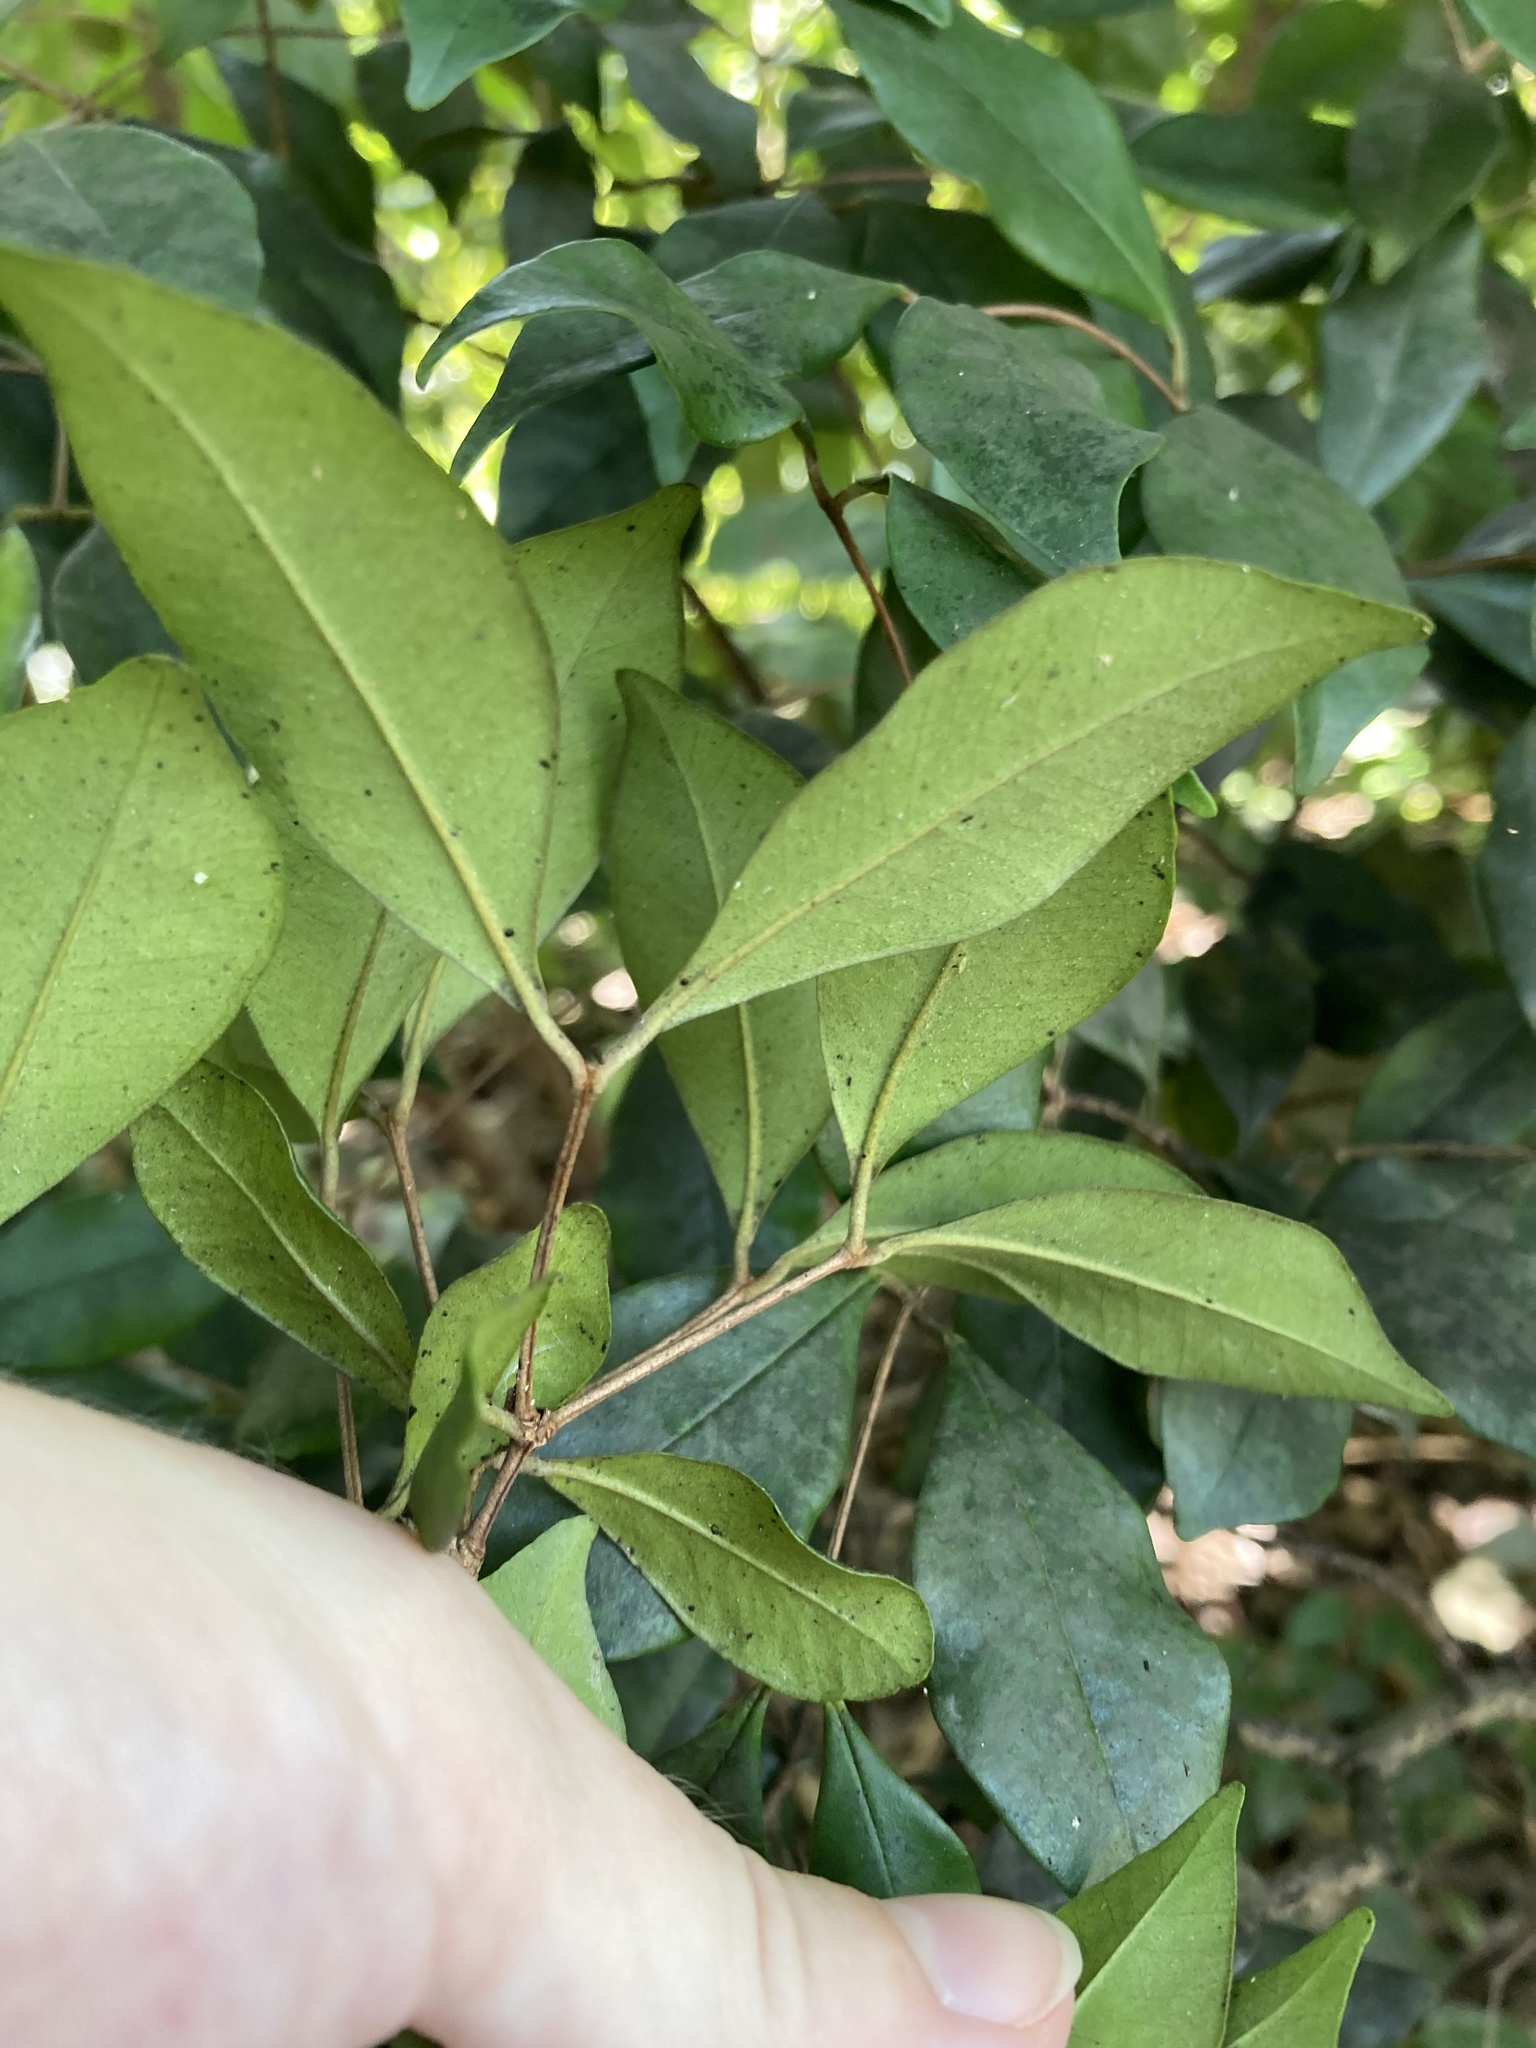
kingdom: Plantae
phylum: Tracheophyta
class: Magnoliopsida
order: Myrtales
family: Myrtaceae
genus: Myrcia
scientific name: Myrcia chytraculia
